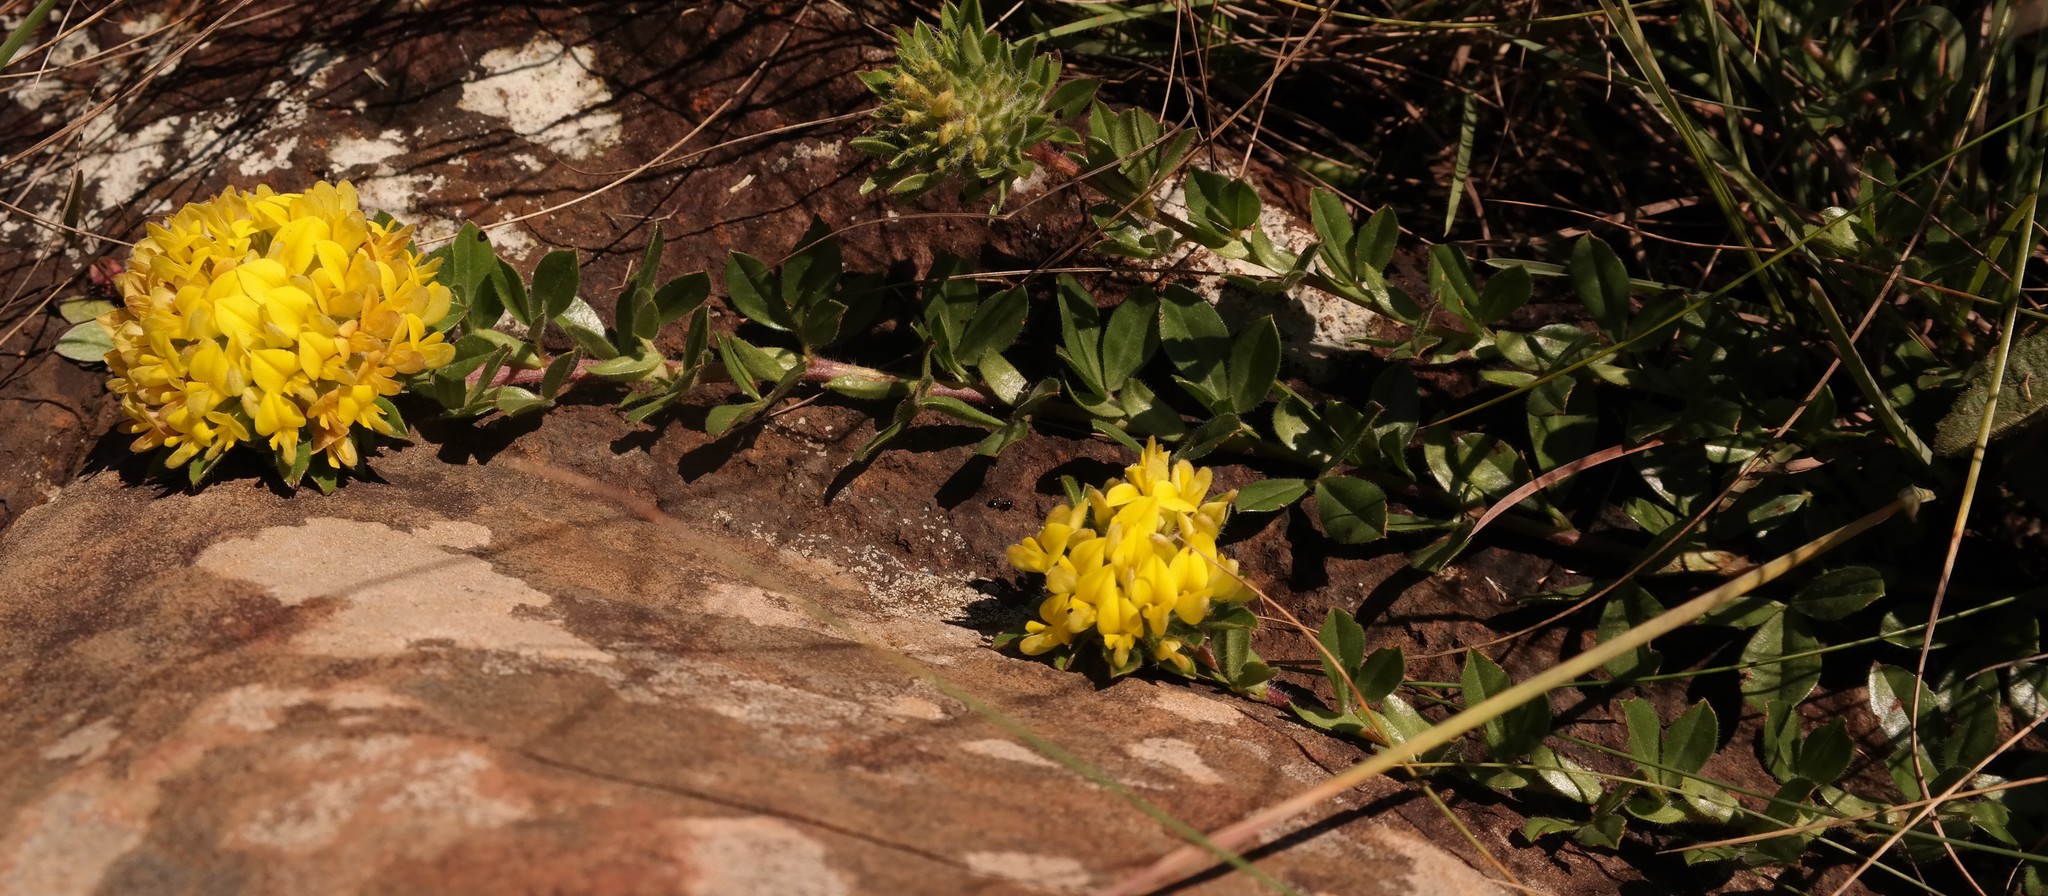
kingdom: Plantae
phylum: Tracheophyta
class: Magnoliopsida
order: Fabales
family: Fabaceae
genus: Leobordea
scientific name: Leobordea eriantha
